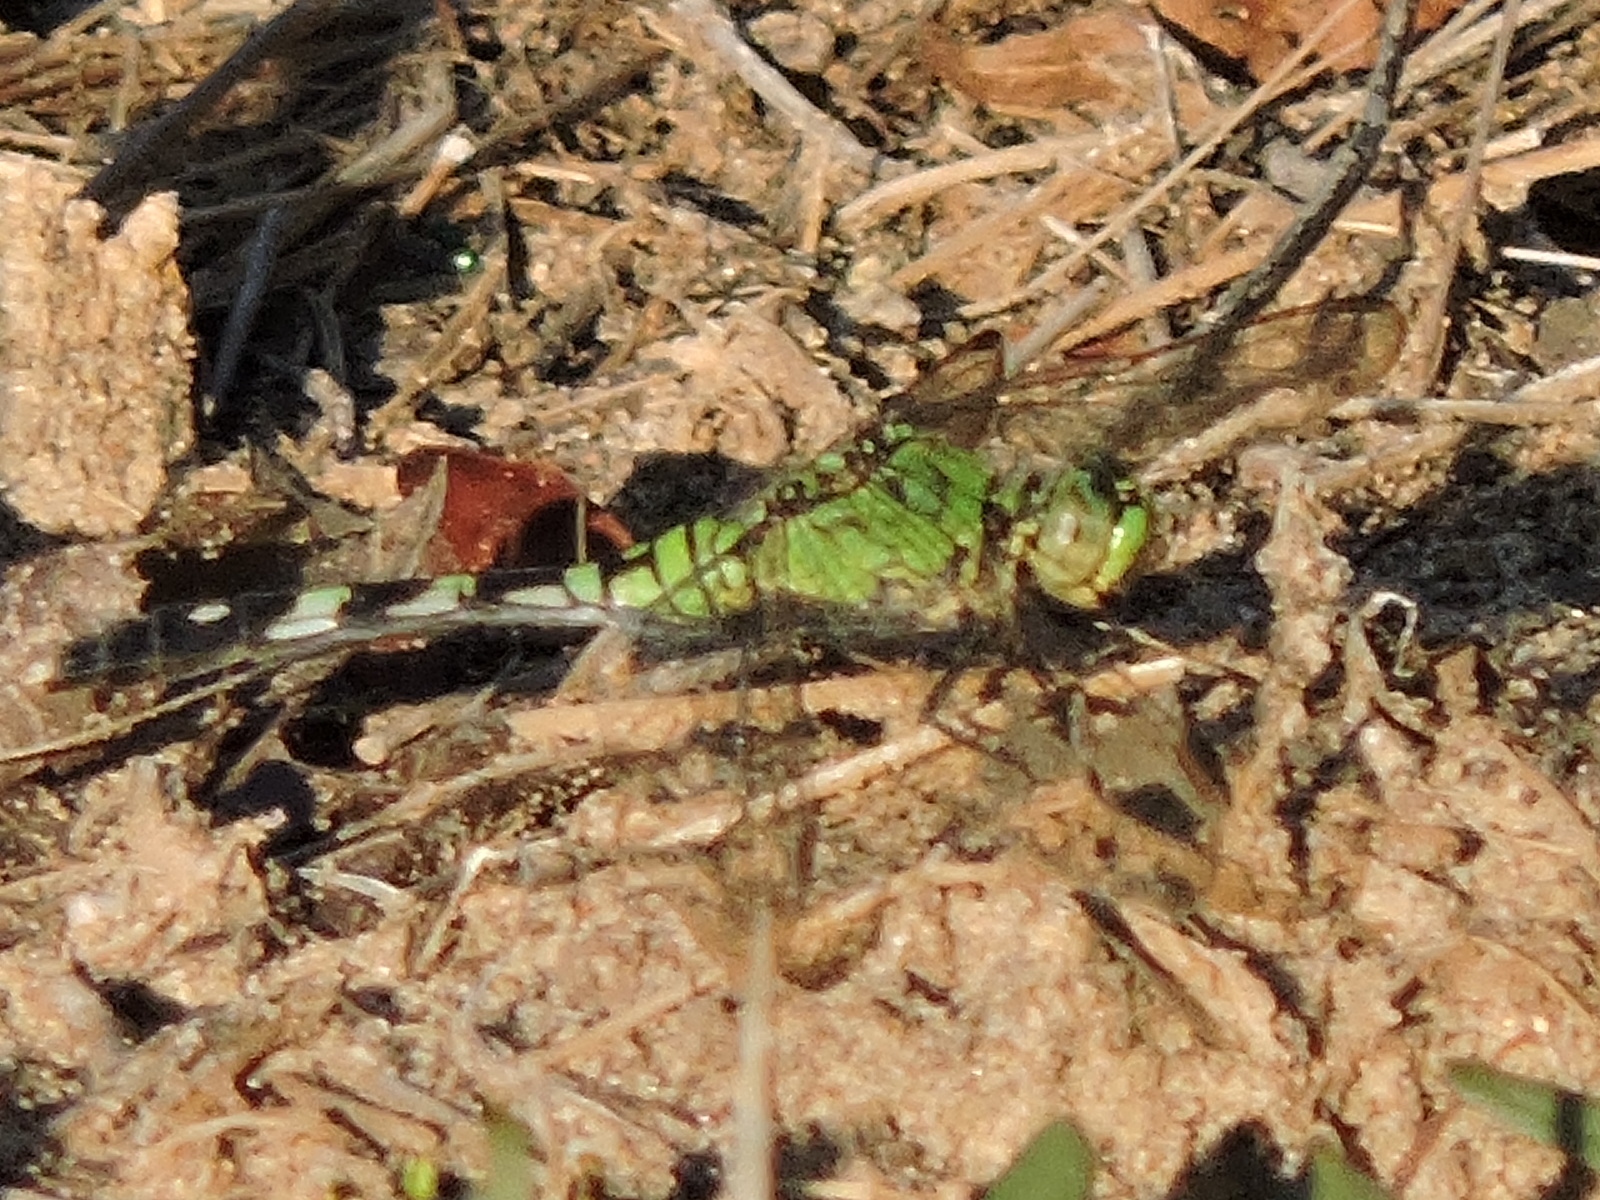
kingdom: Animalia
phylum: Arthropoda
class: Insecta
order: Odonata
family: Libellulidae
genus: Erythemis
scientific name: Erythemis simplicicollis
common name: Eastern pondhawk
